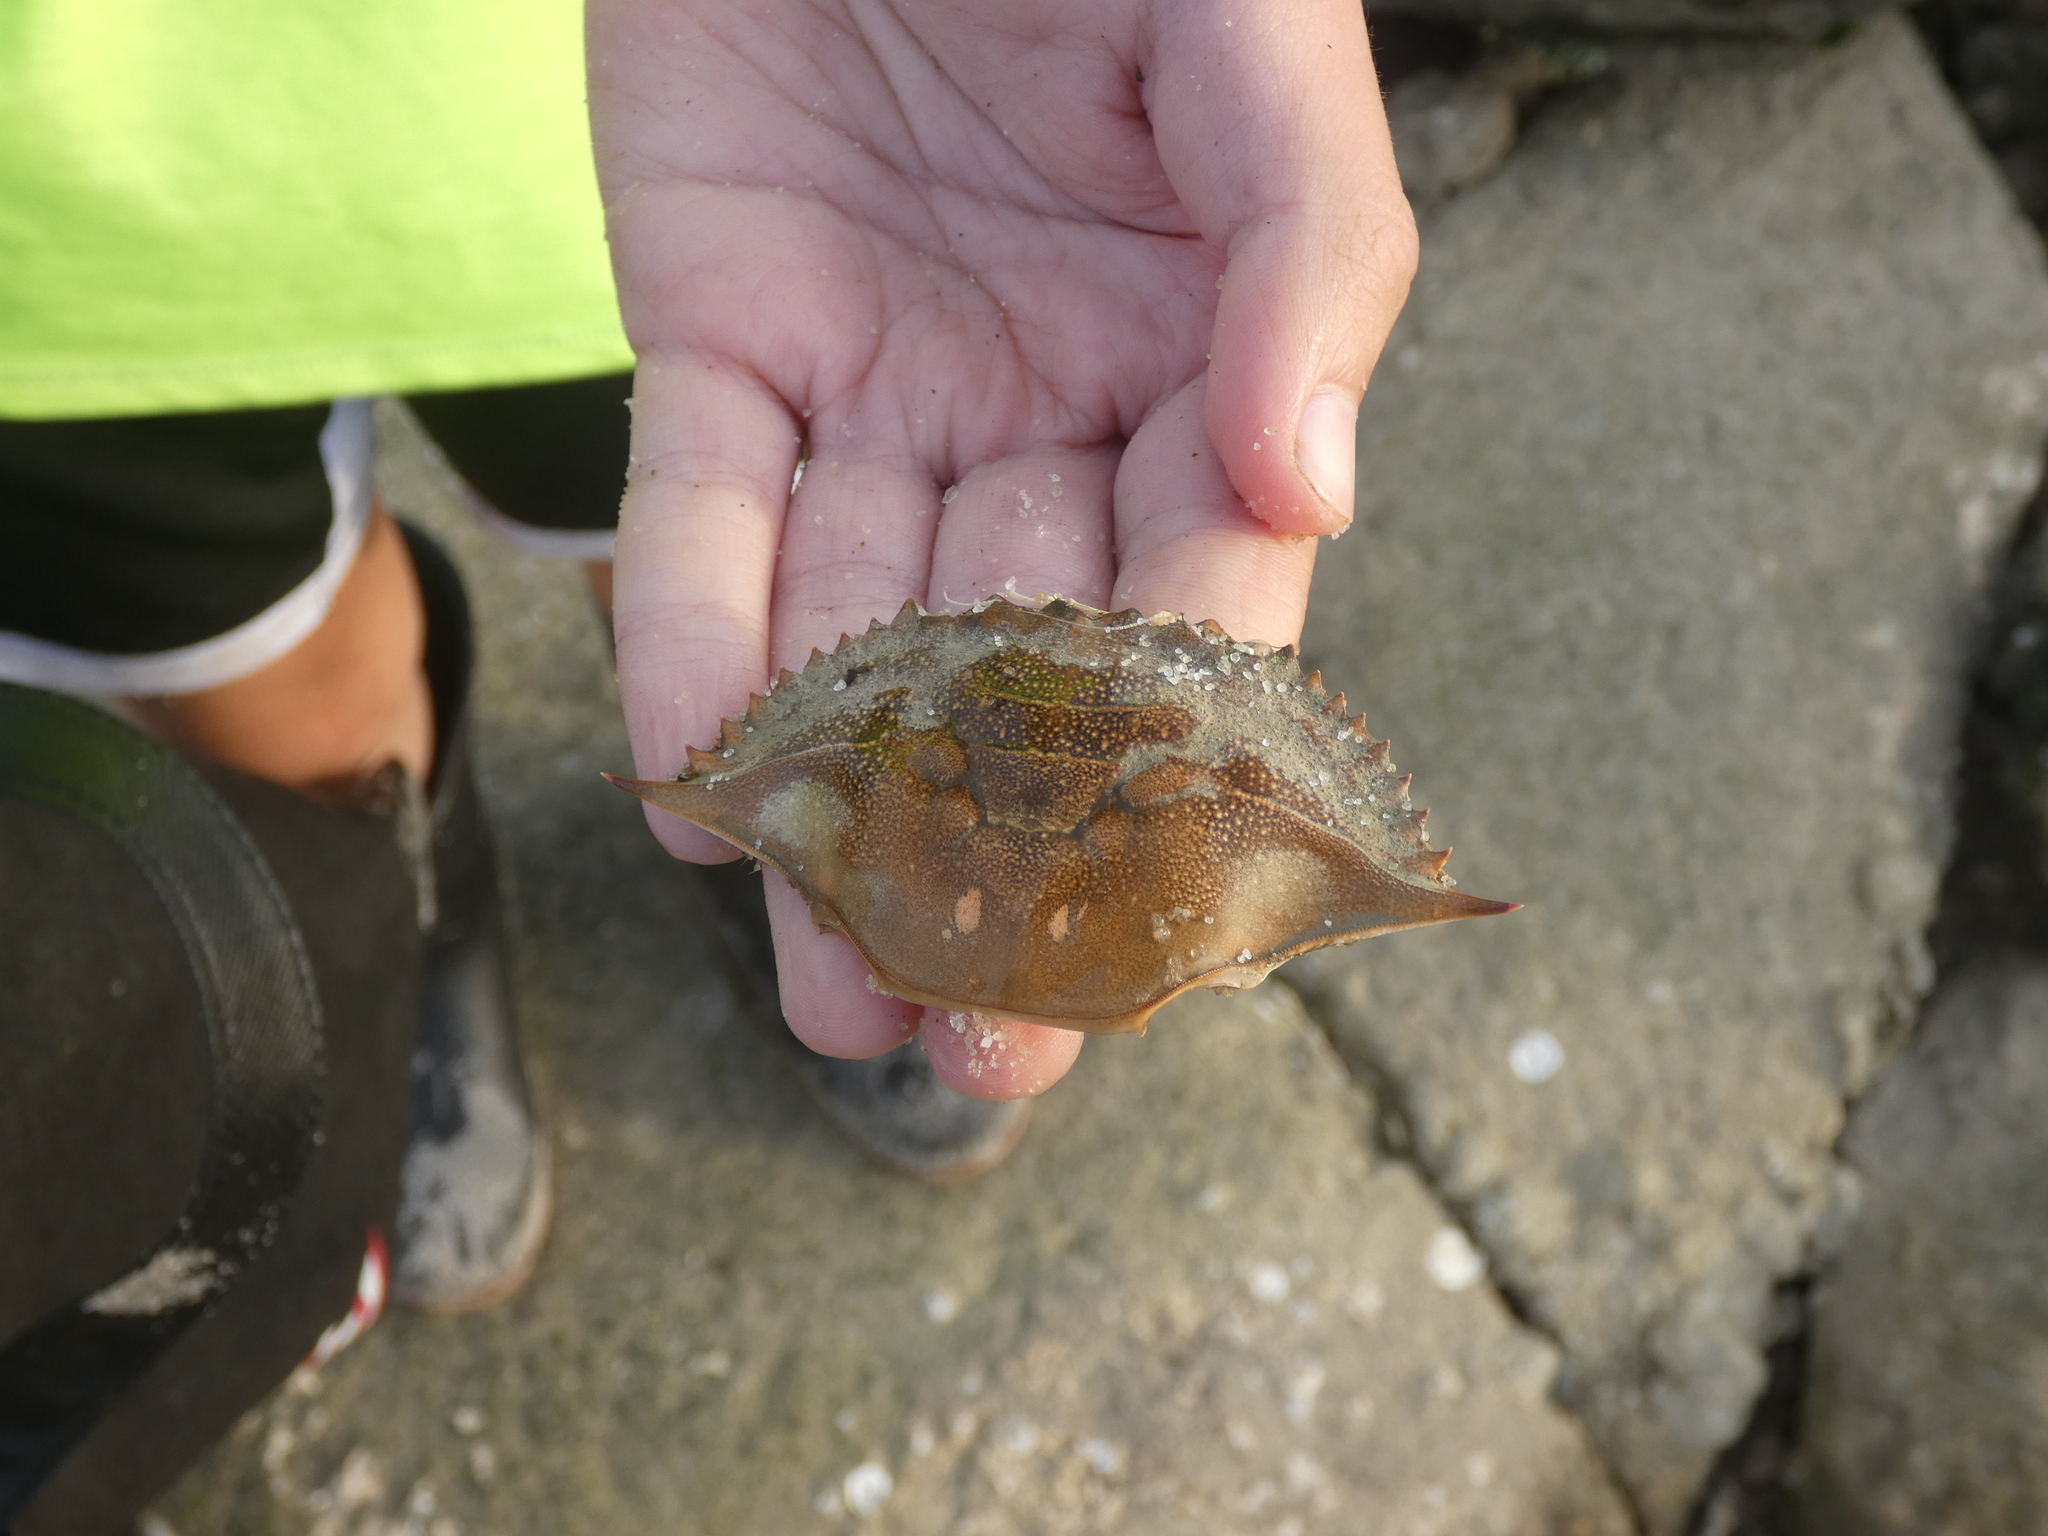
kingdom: Animalia
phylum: Arthropoda
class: Malacostraca
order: Decapoda
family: Portunidae
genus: Callinectes
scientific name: Callinectes sapidus
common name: Blue crab
